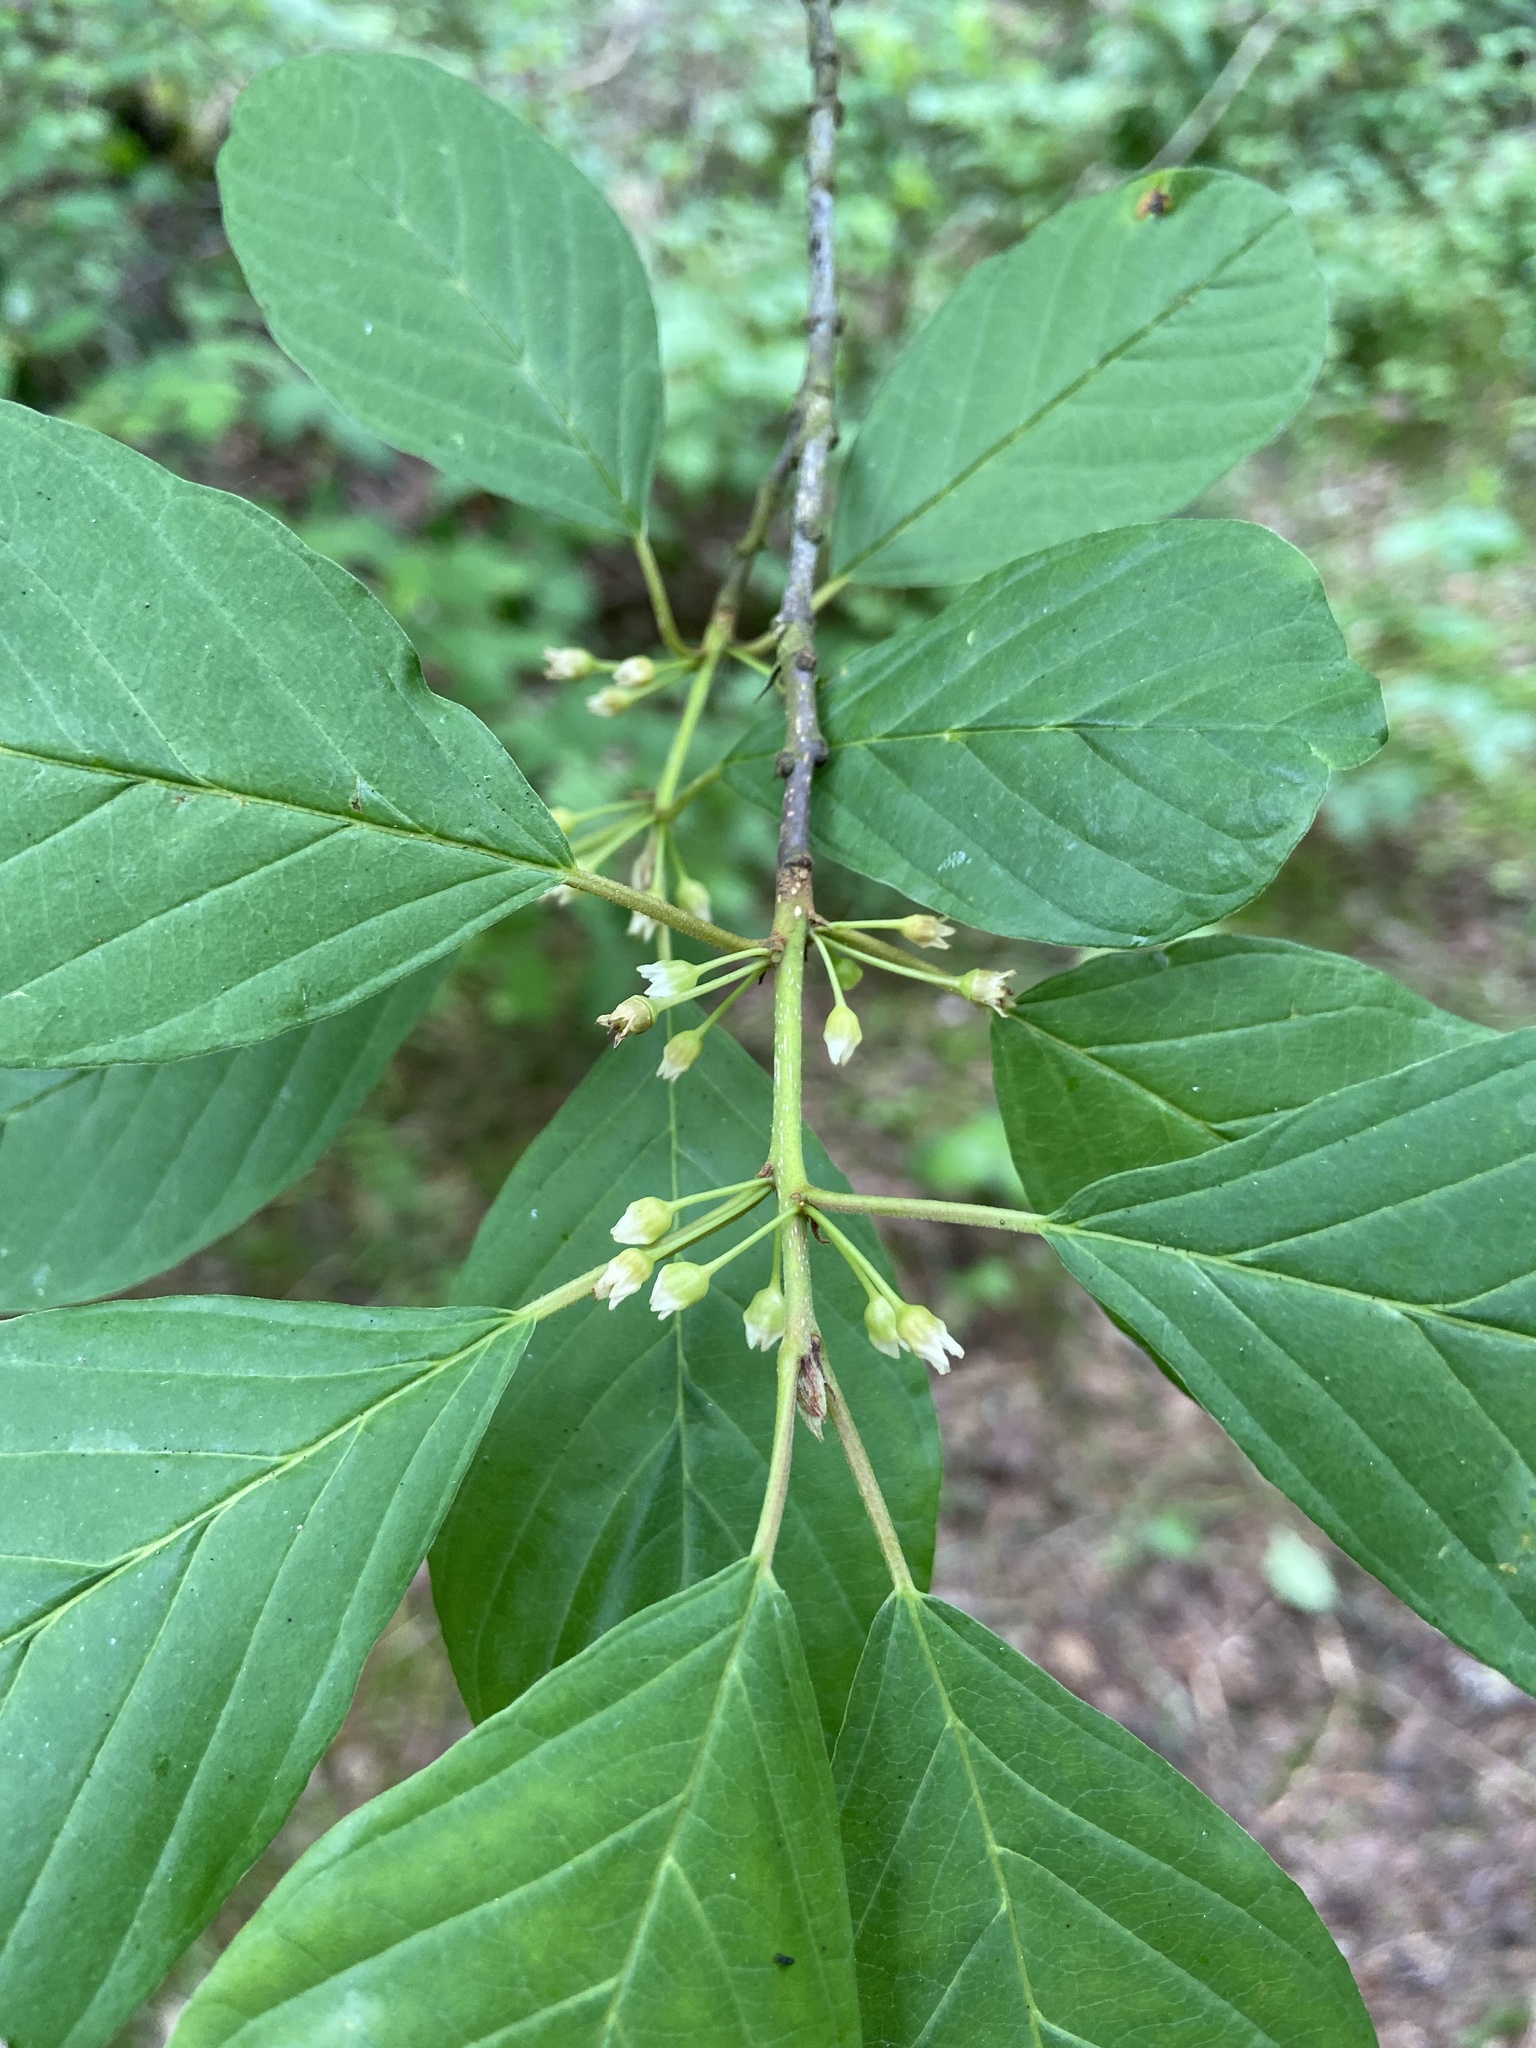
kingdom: Plantae
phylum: Tracheophyta
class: Magnoliopsida
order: Rosales
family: Rhamnaceae
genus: Frangula
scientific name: Frangula alnus
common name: Alder buckthorn
